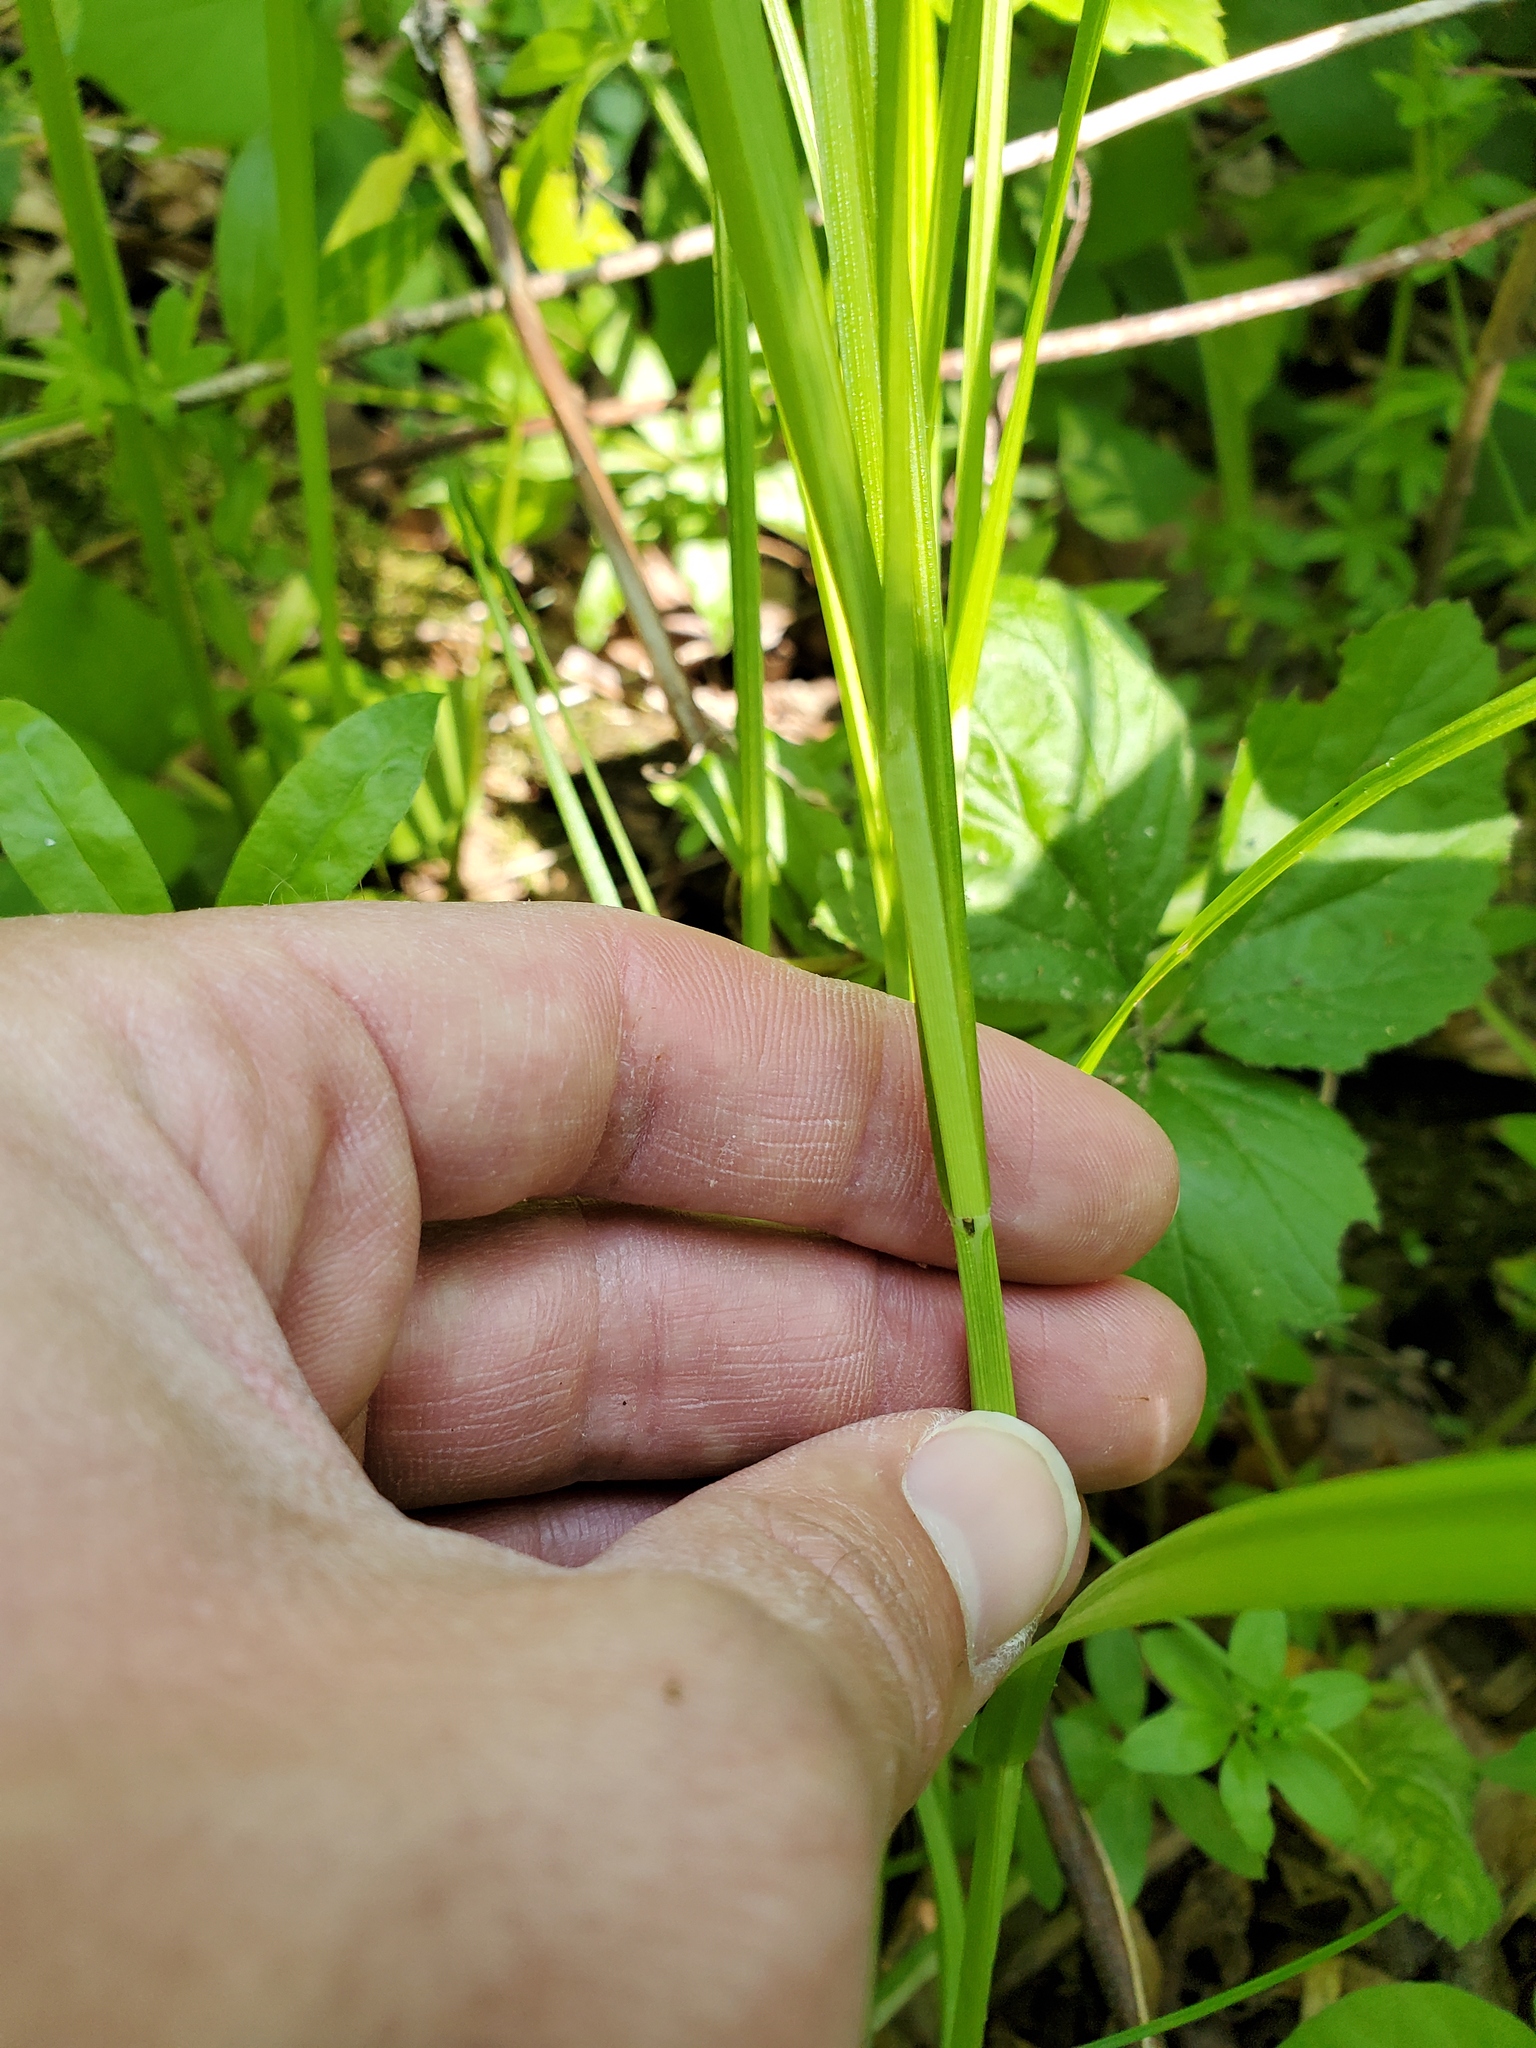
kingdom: Plantae
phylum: Tracheophyta
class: Liliopsida
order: Poales
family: Cyperaceae
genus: Carex
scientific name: Carex normalis
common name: Greater straw sedge
